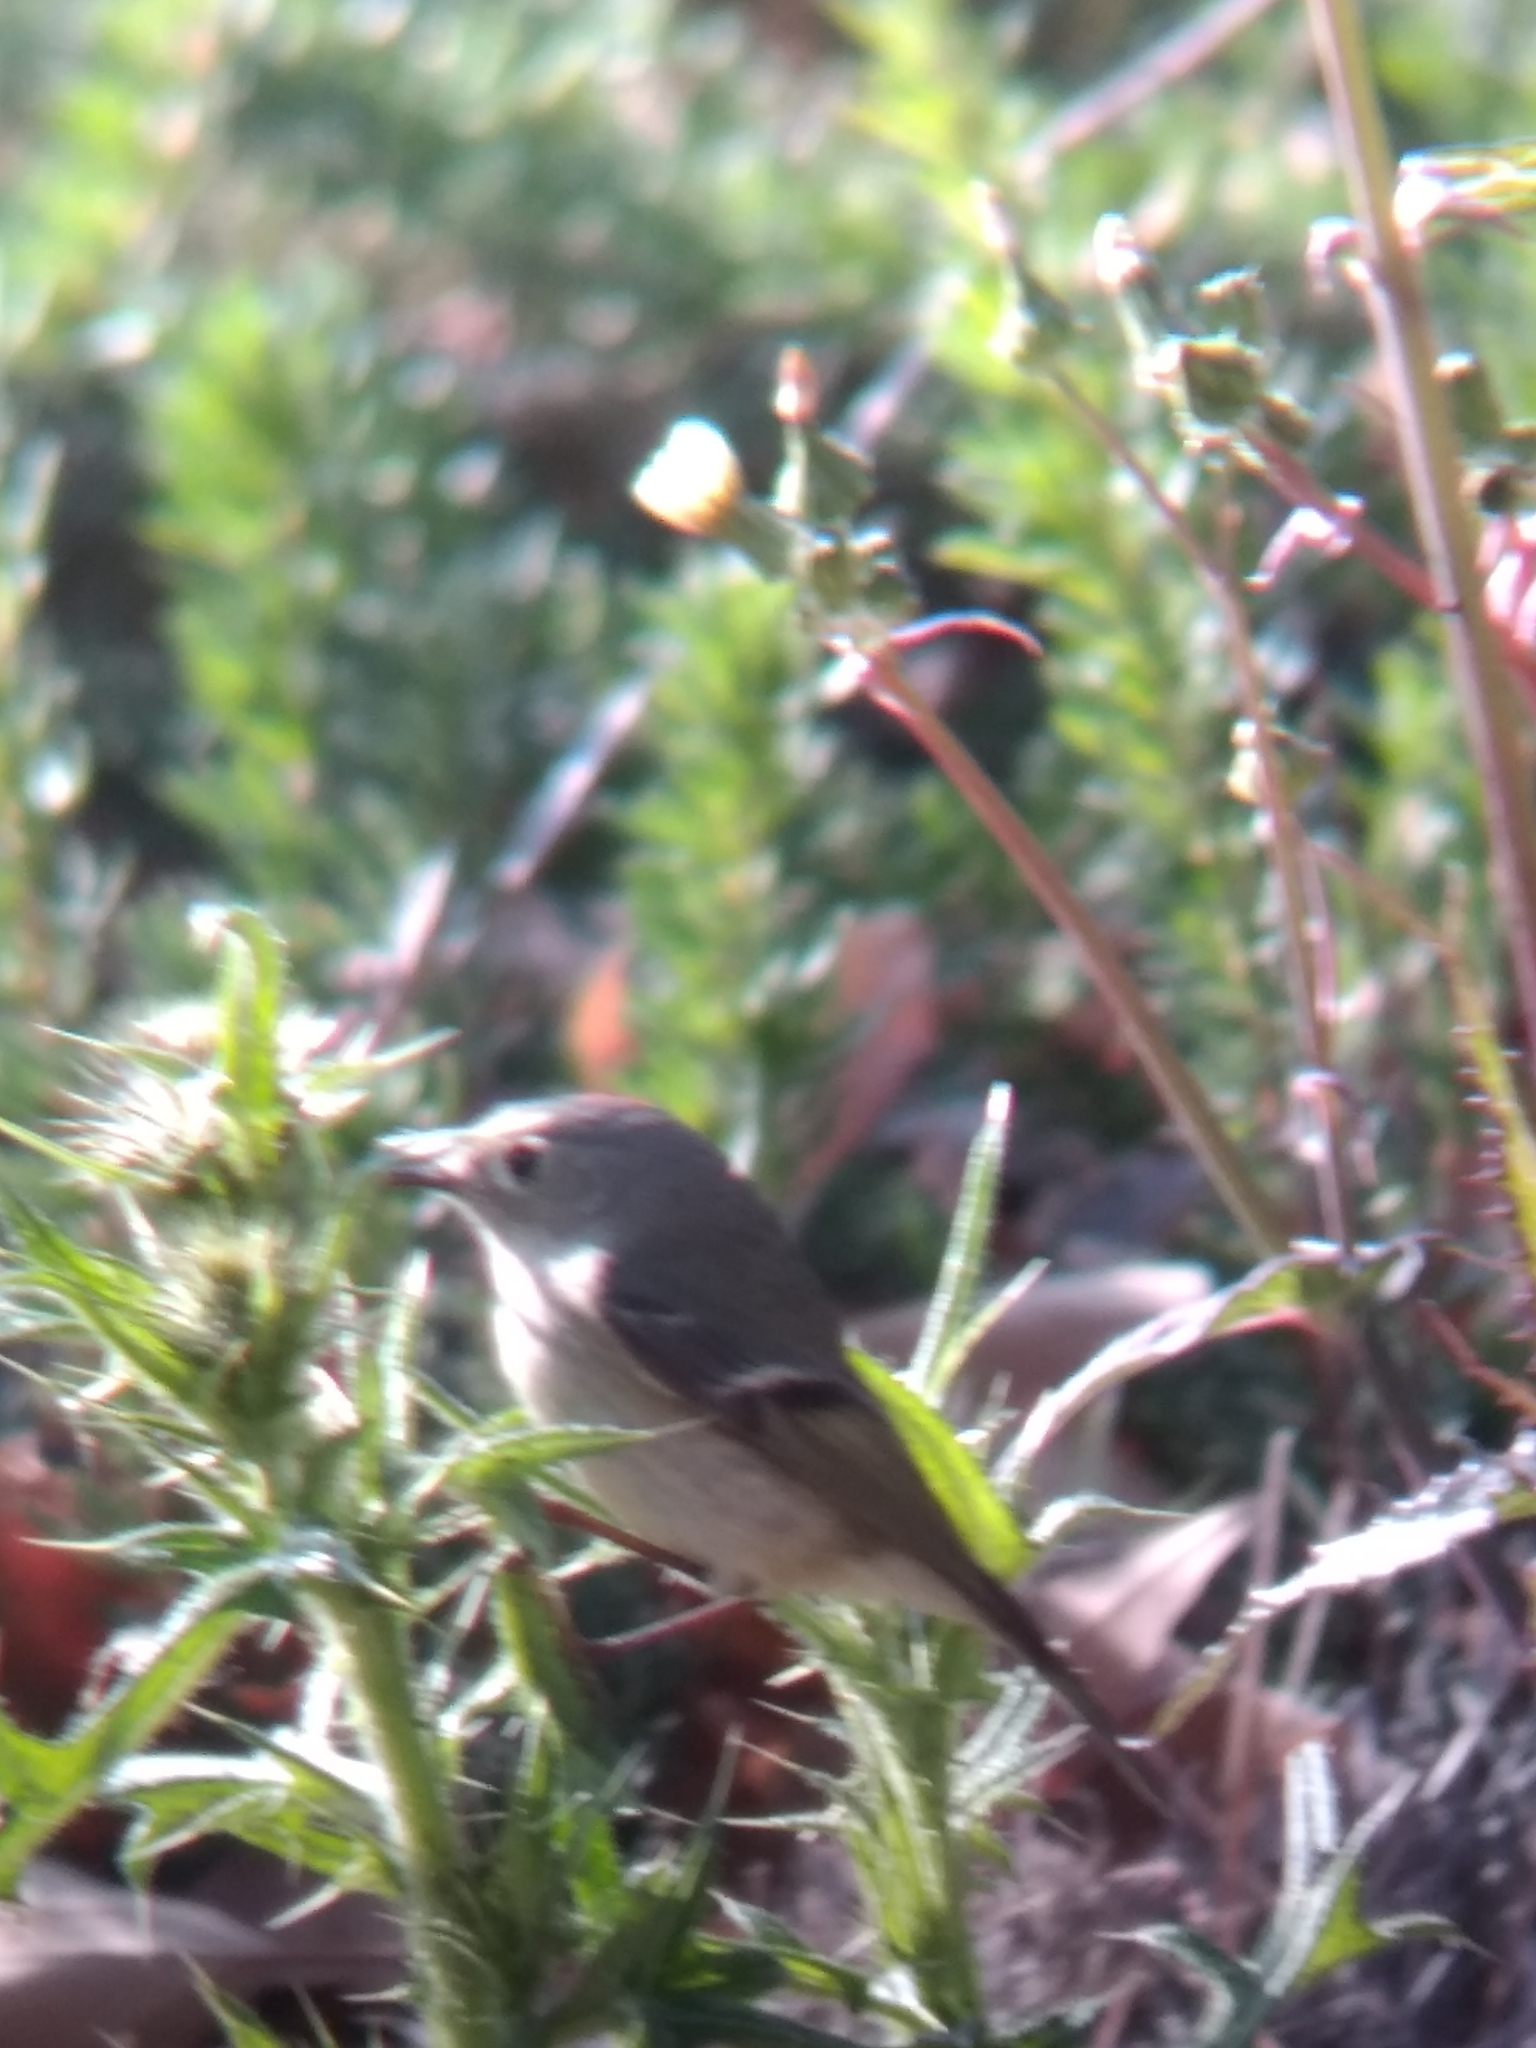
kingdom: Animalia
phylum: Chordata
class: Aves
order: Passeriformes
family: Regulidae
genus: Regulus
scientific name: Regulus calendula
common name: Ruby-crowned kinglet
